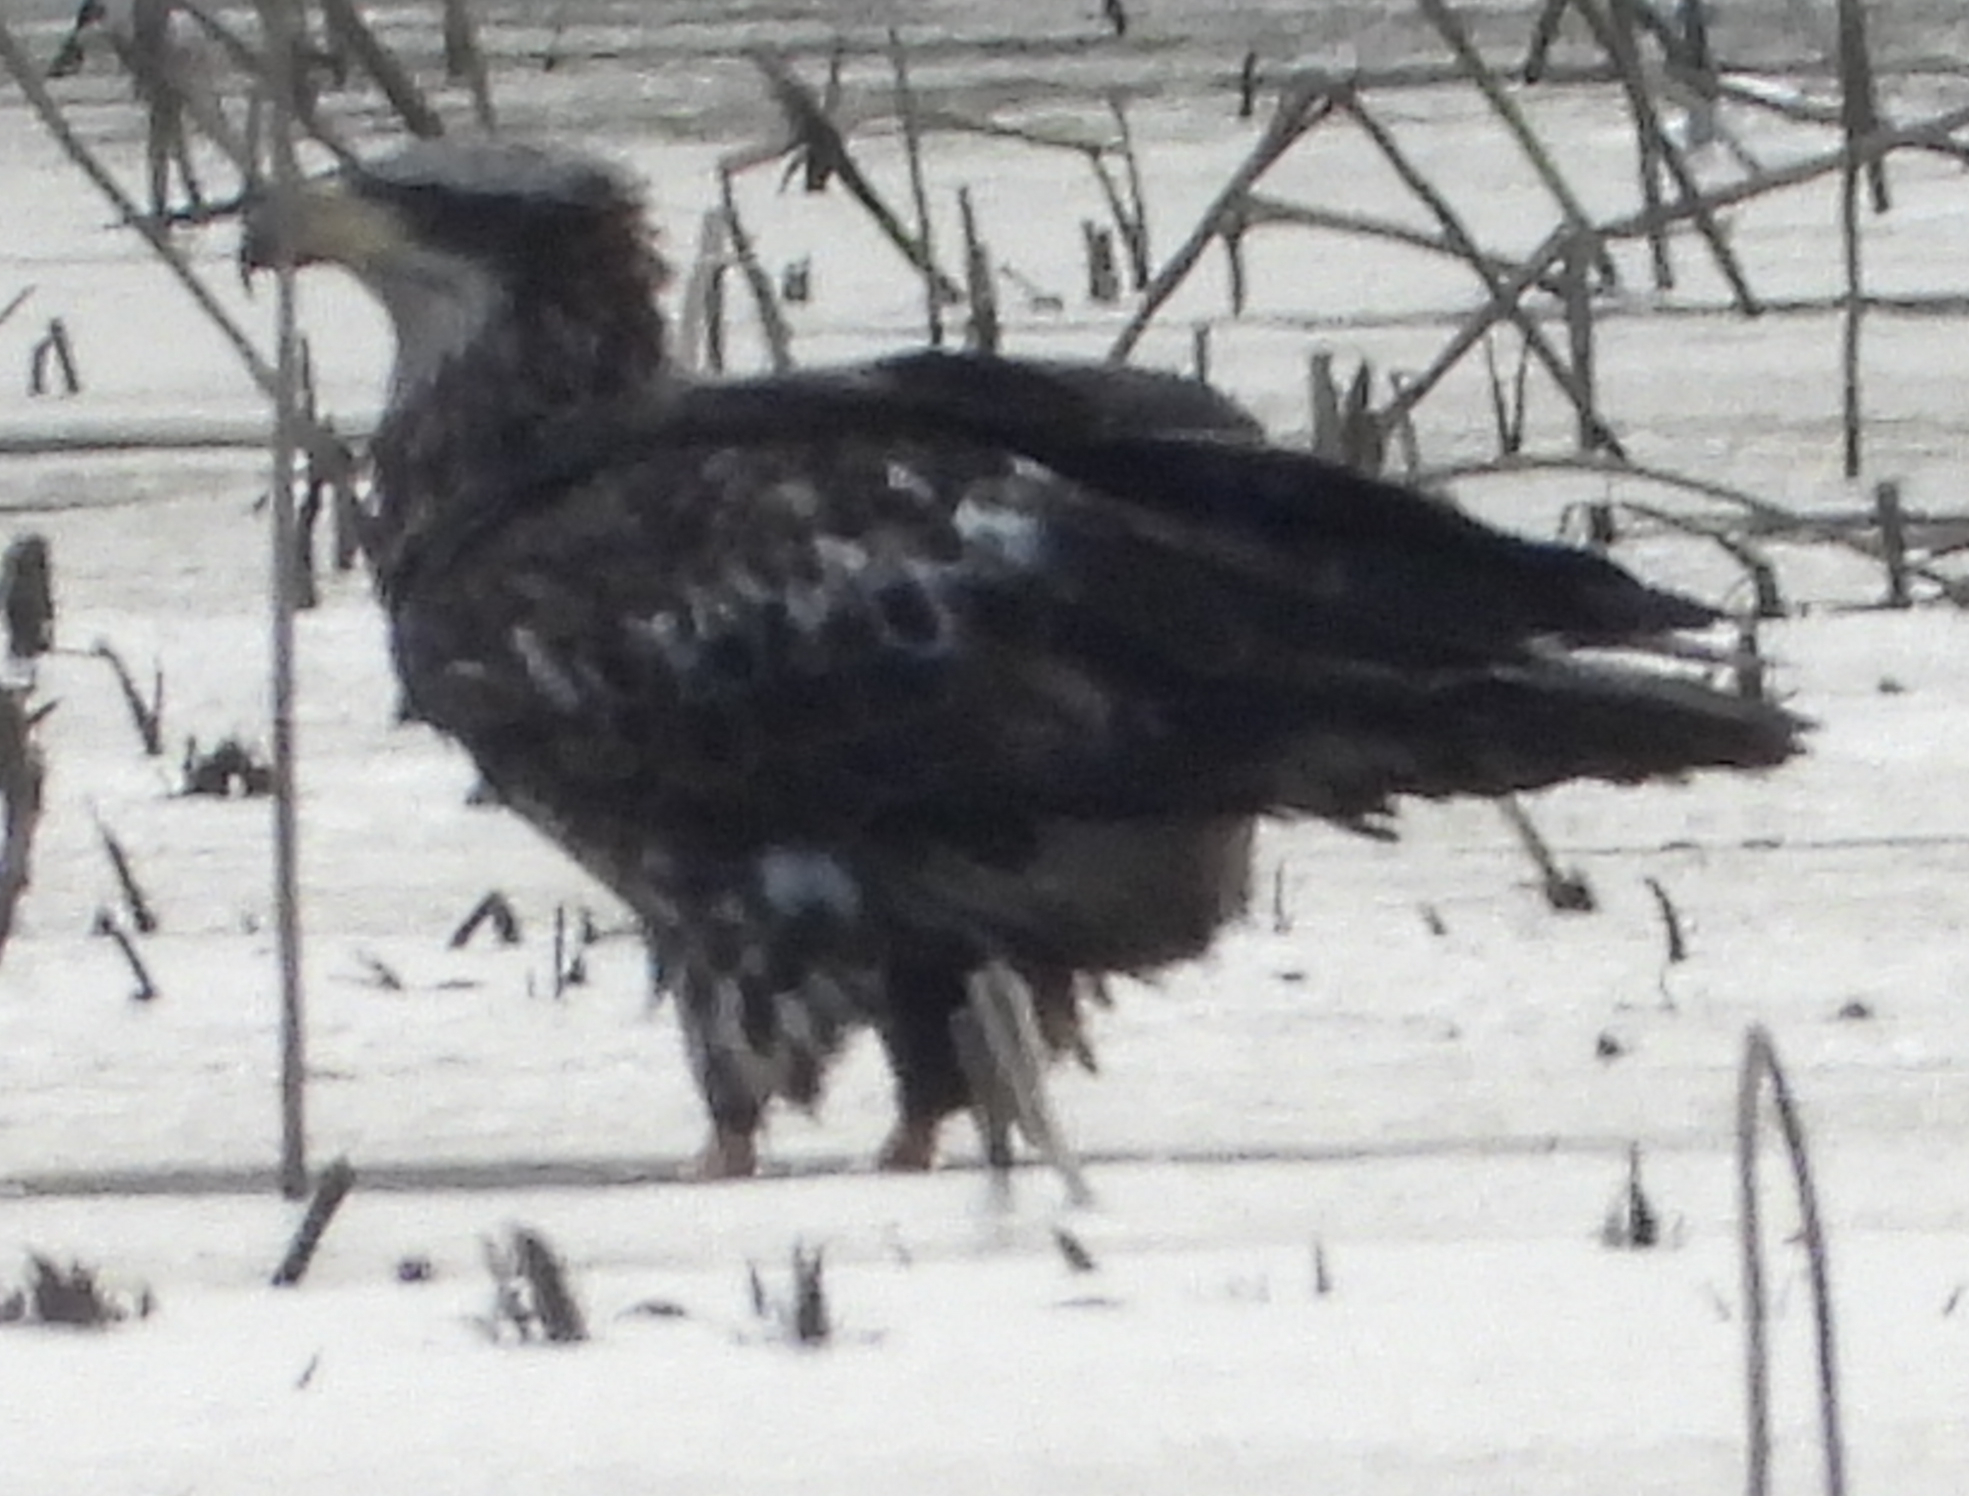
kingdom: Animalia
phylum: Chordata
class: Aves
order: Accipitriformes
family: Accipitridae
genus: Haliaeetus
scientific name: Haliaeetus leucocephalus
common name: Bald eagle
